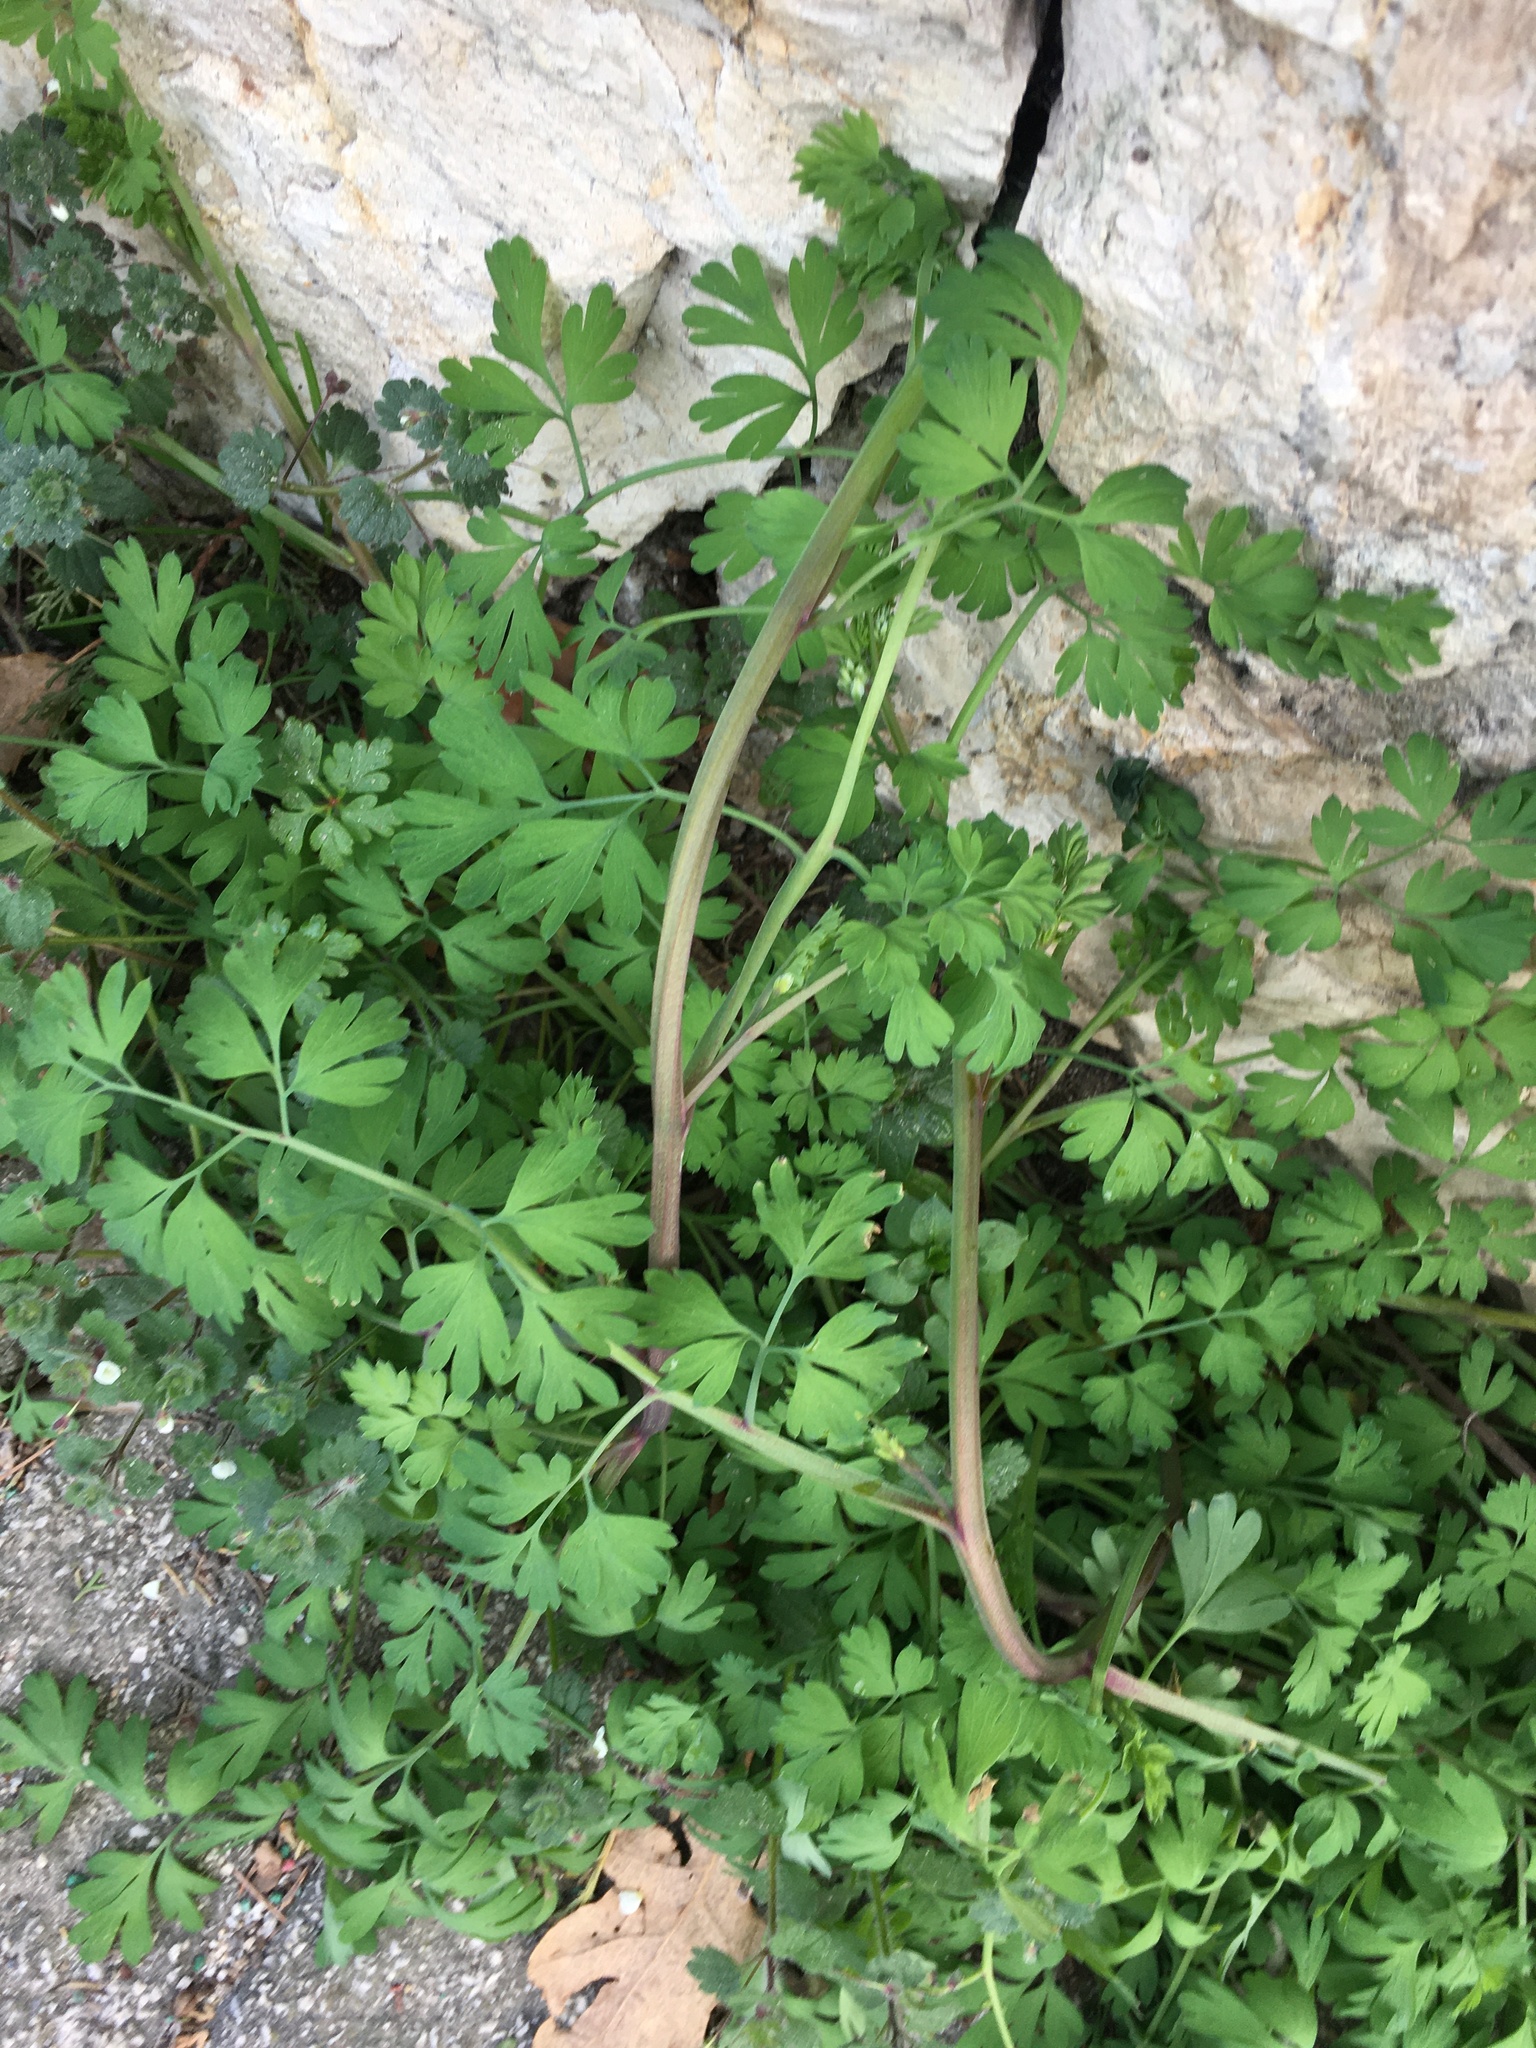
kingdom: Plantae
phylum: Tracheophyta
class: Magnoliopsida
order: Ranunculales
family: Papaveraceae
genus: Fumaria
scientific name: Fumaria capreolata
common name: White ramping-fumitory
